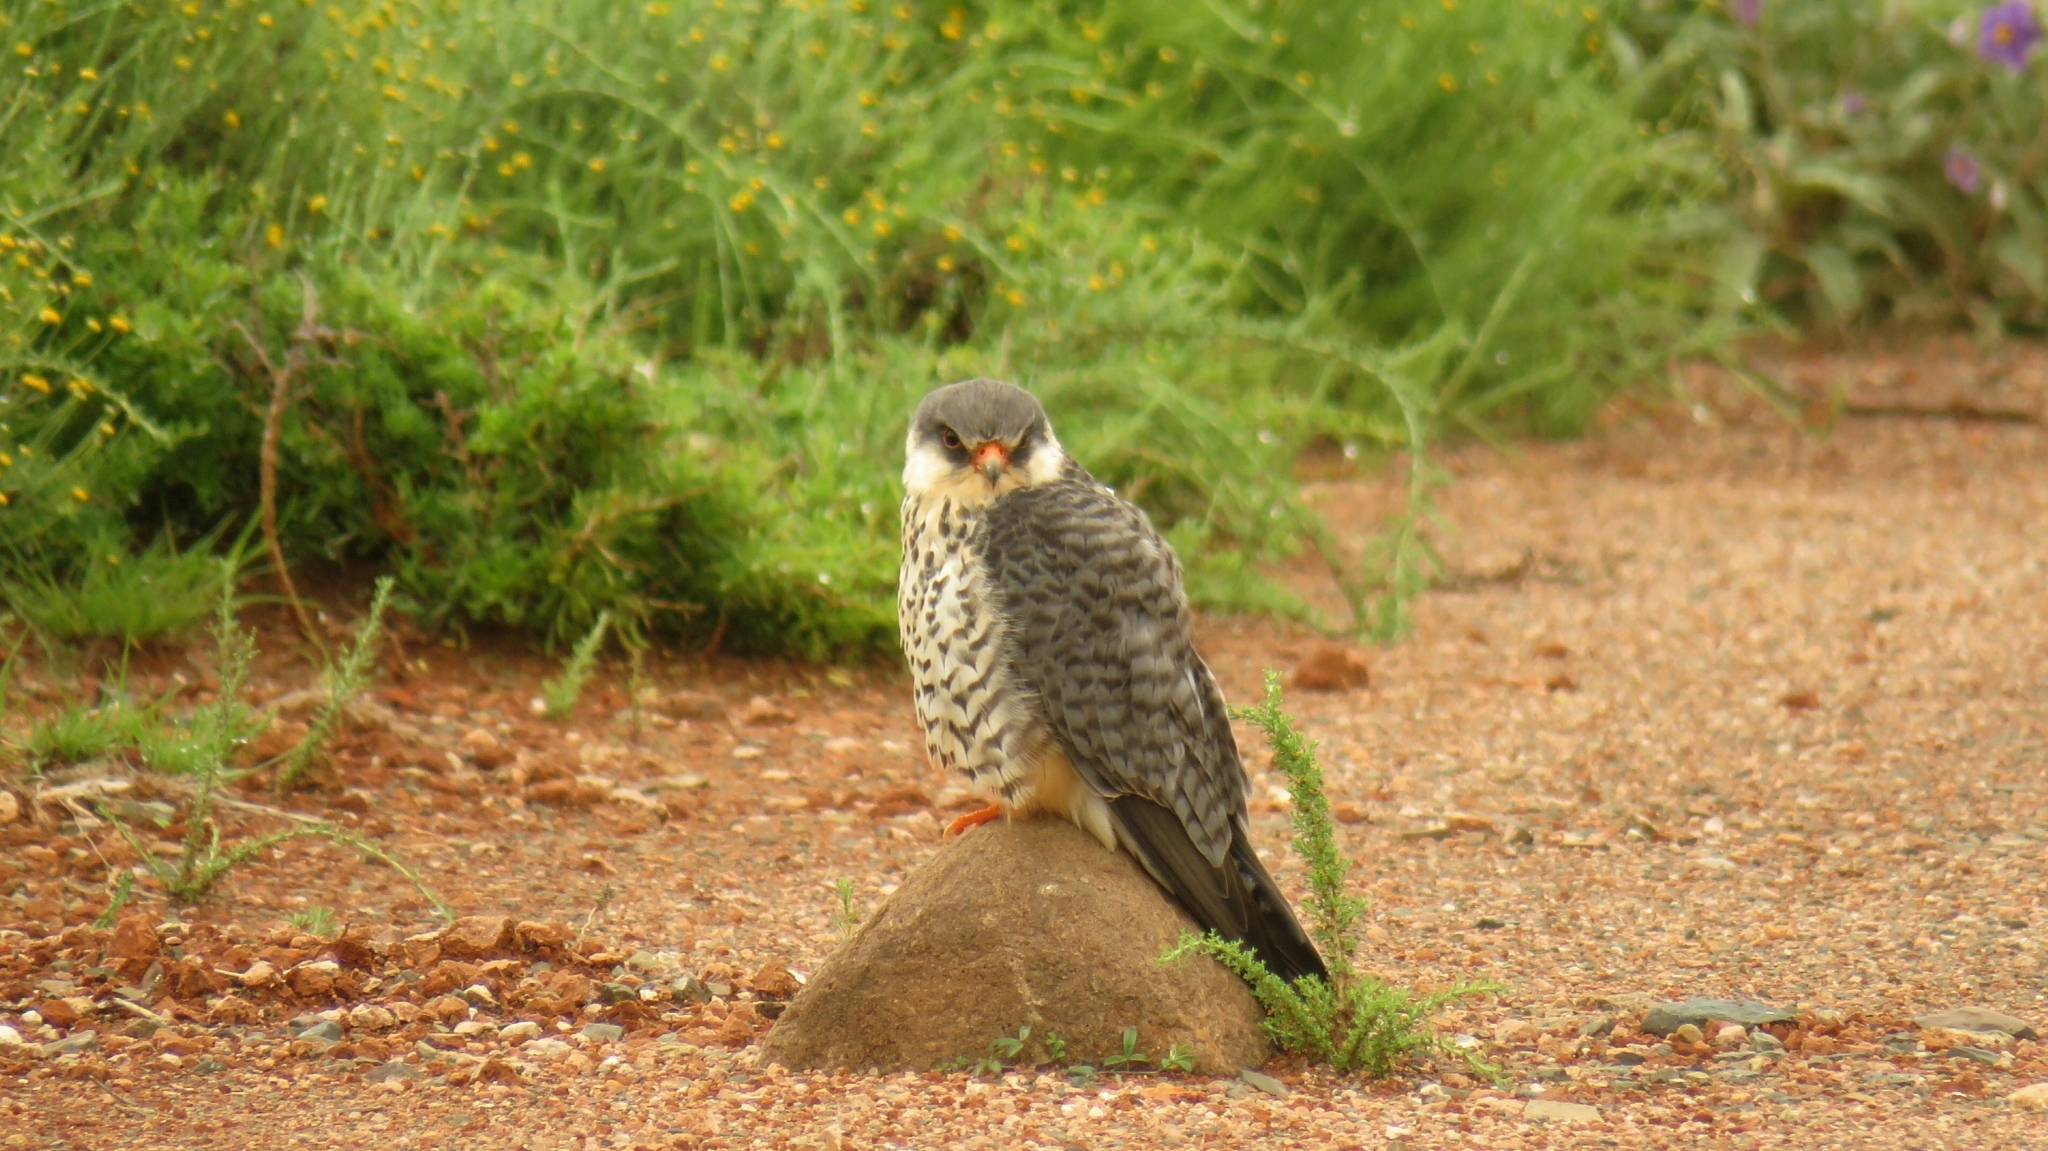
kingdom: Animalia
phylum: Chordata
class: Aves
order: Falconiformes
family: Falconidae
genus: Falco
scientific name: Falco amurensis
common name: Amur falcon
